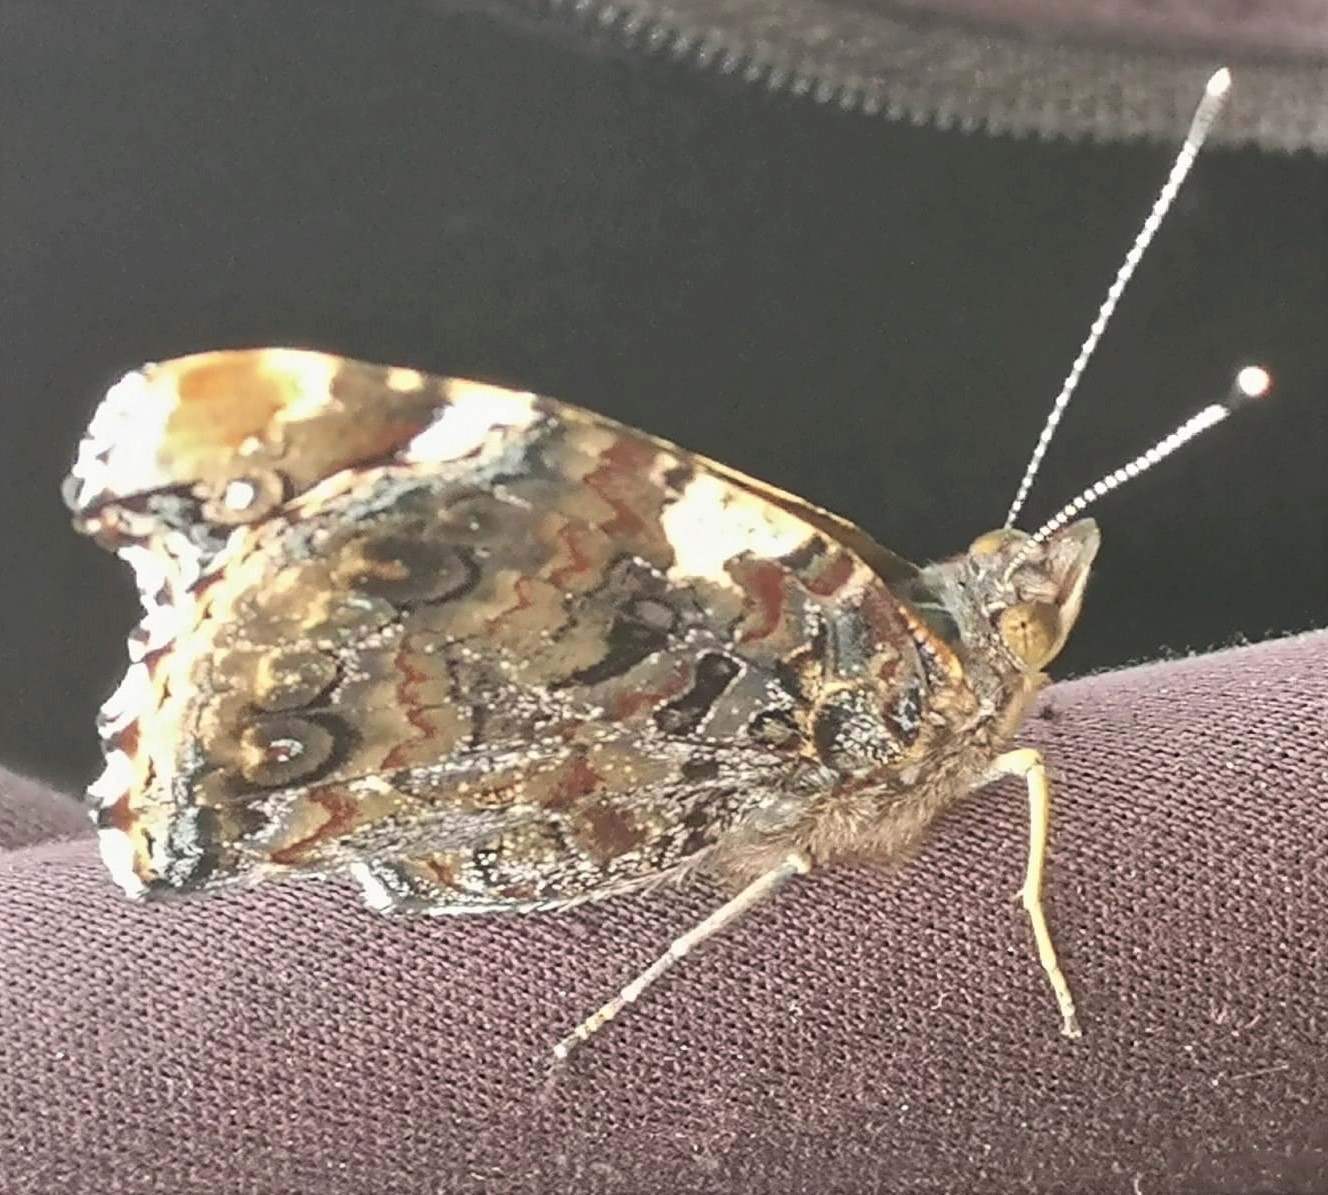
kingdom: Animalia
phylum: Arthropoda
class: Insecta
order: Lepidoptera
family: Nymphalidae
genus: Vanessa
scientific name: Vanessa atalanta
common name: Red admiral
